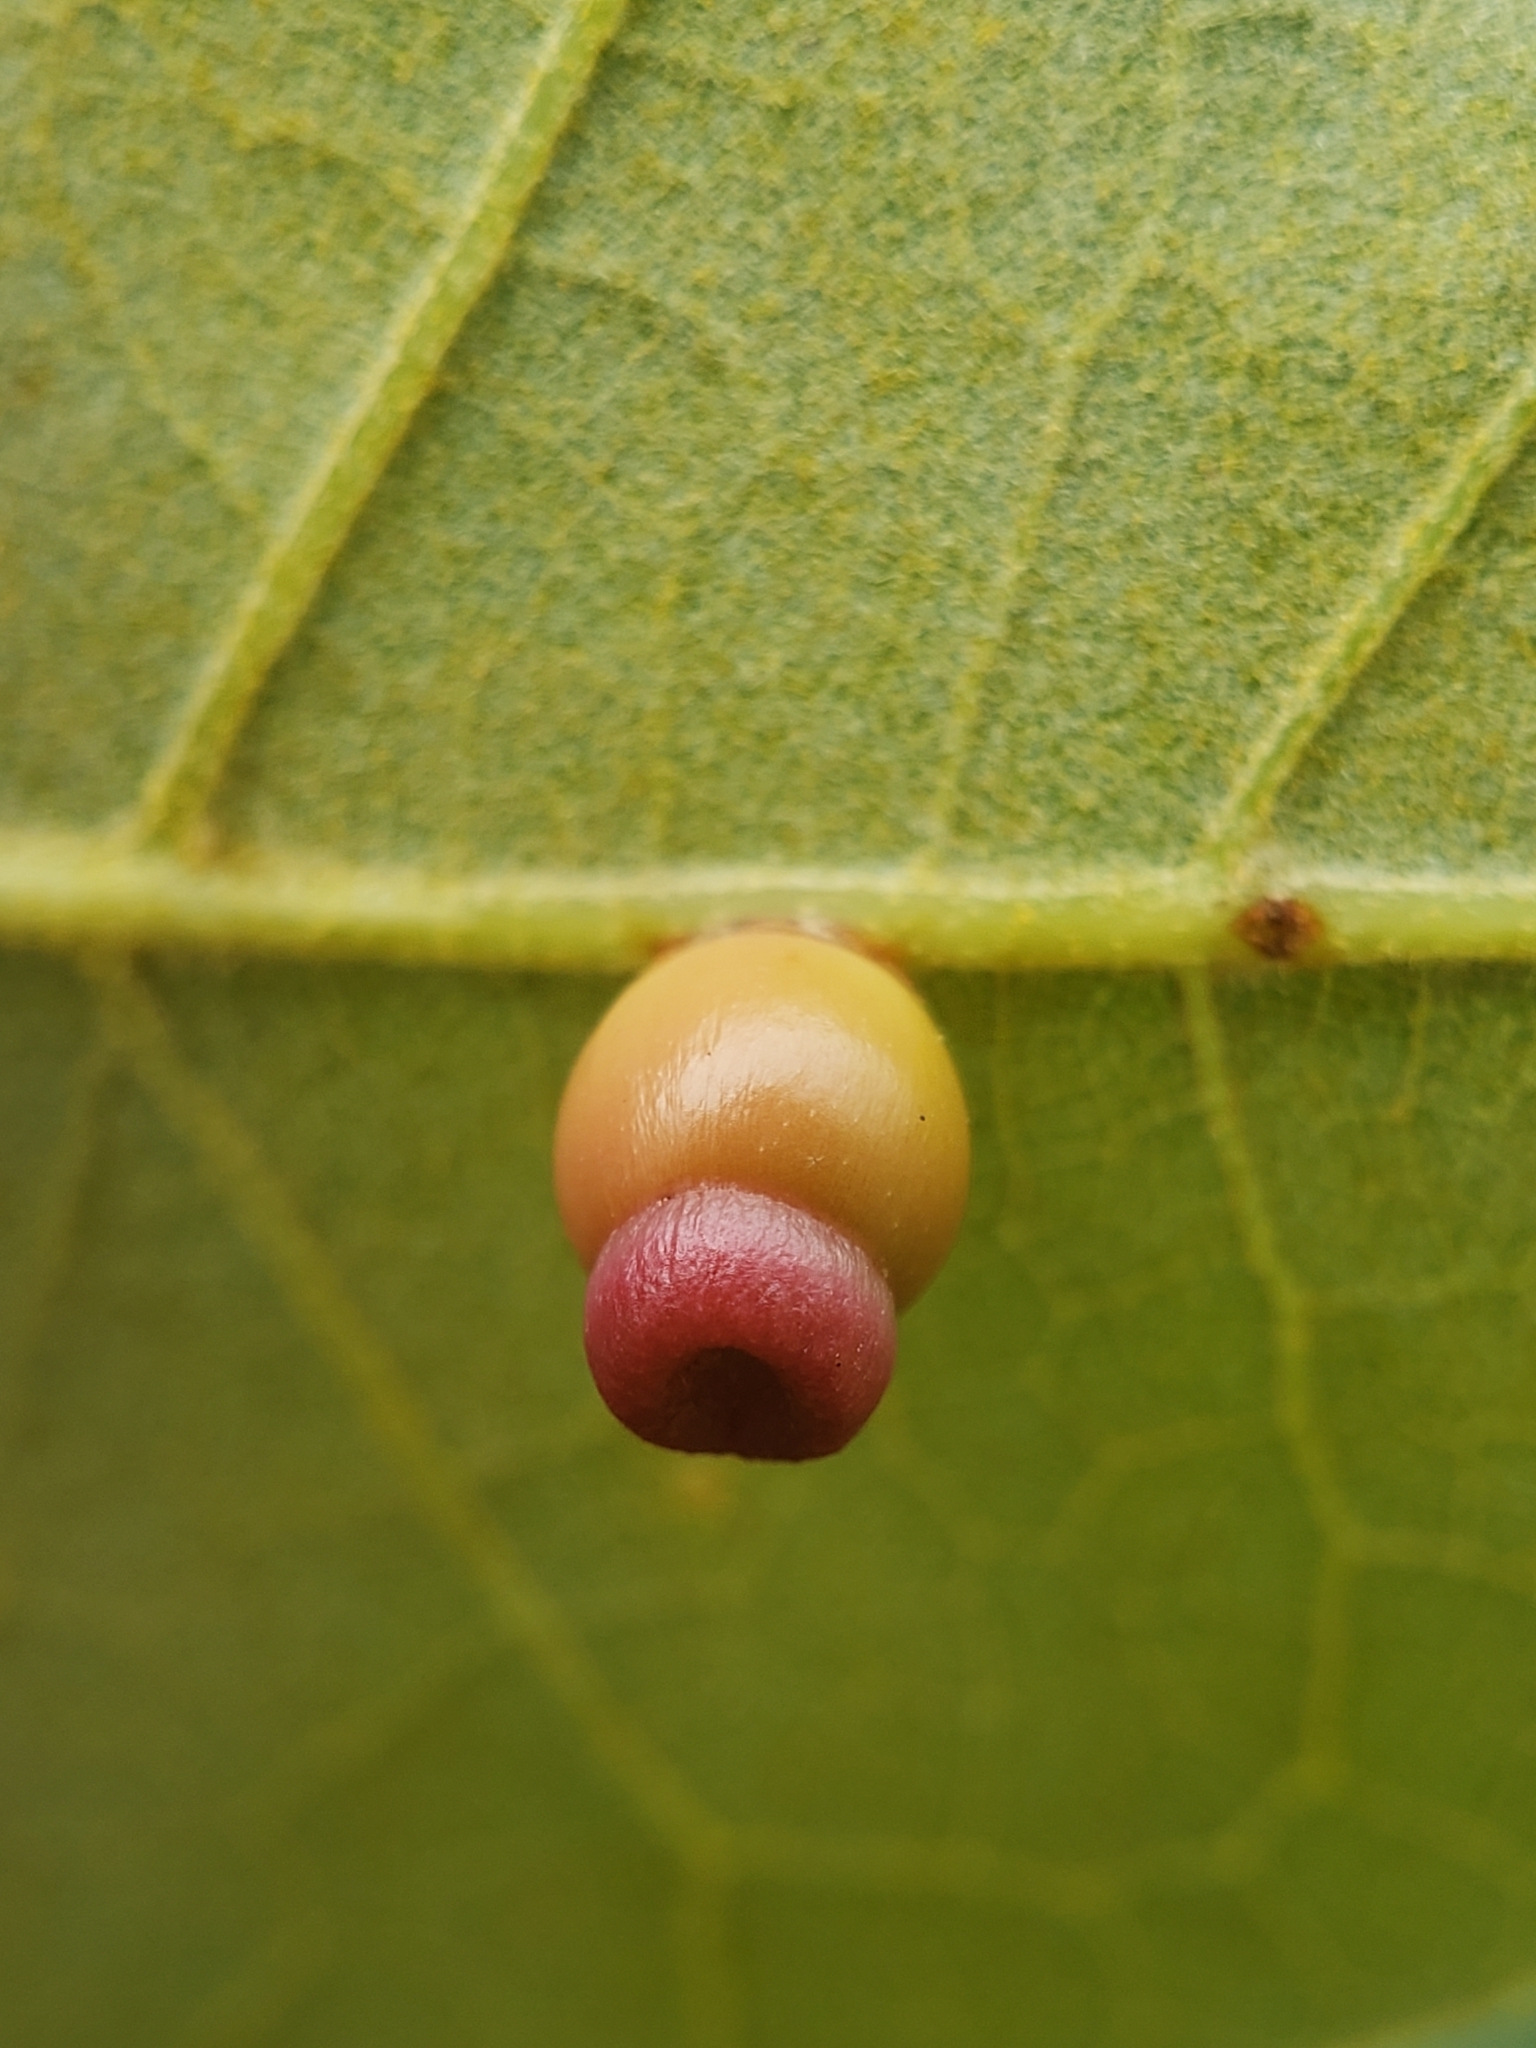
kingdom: Animalia
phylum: Arthropoda
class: Insecta
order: Hymenoptera
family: Cynipidae
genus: Kokkocynips
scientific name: Kokkocynips rileyi
